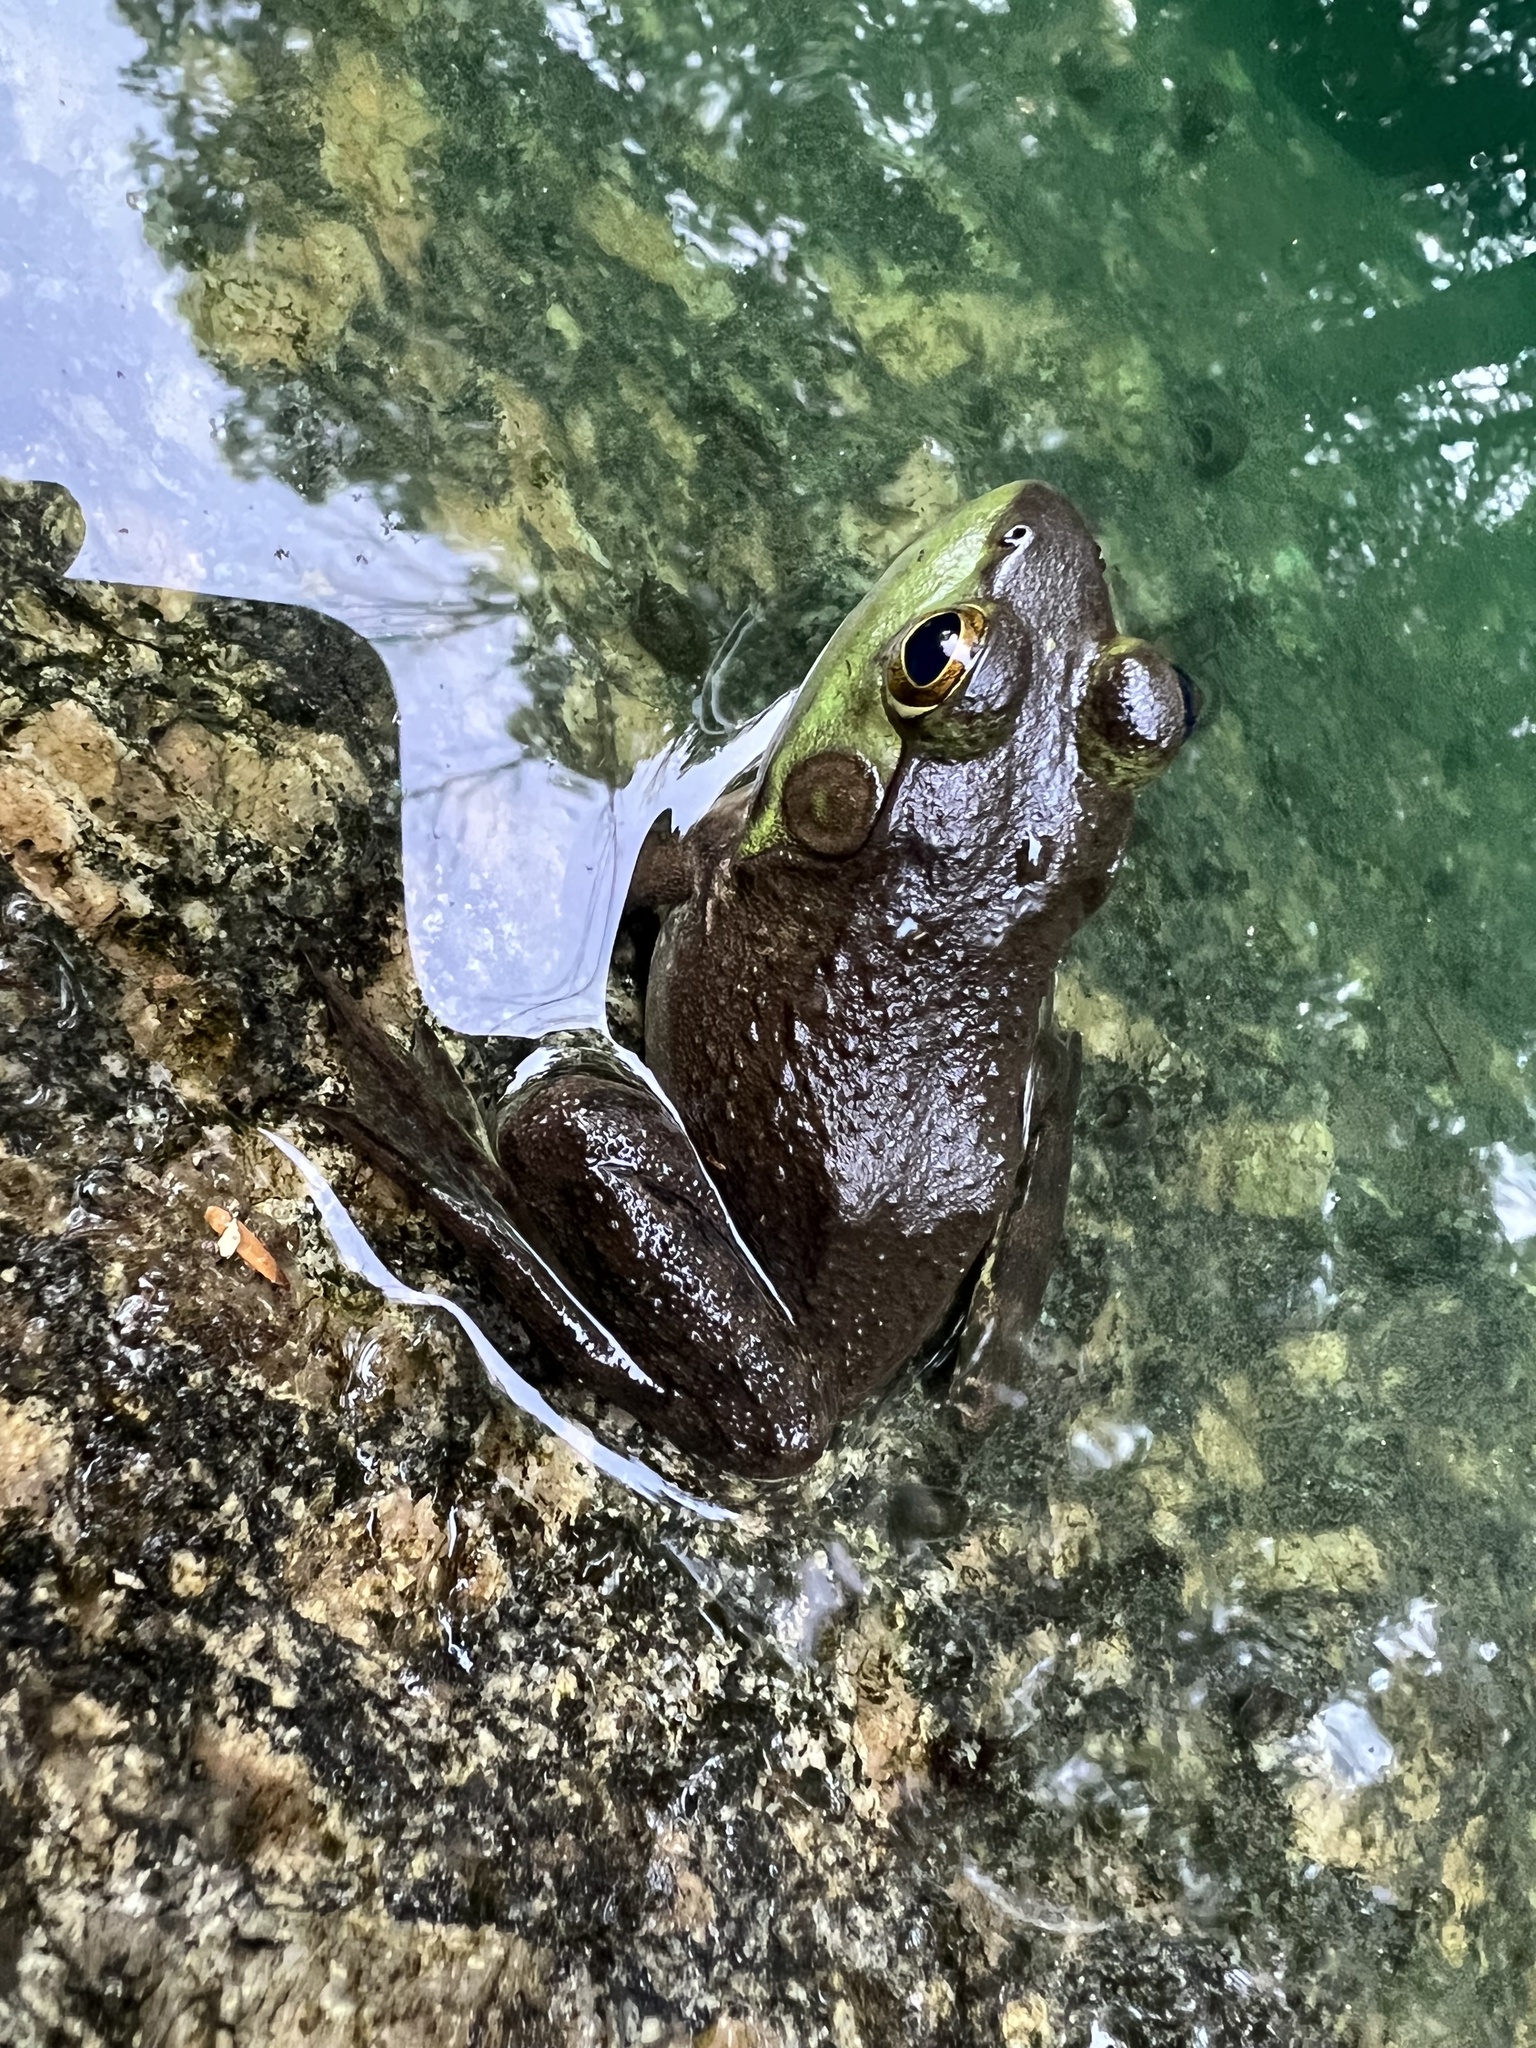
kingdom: Animalia
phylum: Chordata
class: Amphibia
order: Anura
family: Ranidae
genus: Lithobates
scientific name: Lithobates catesbeianus
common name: American bullfrog
